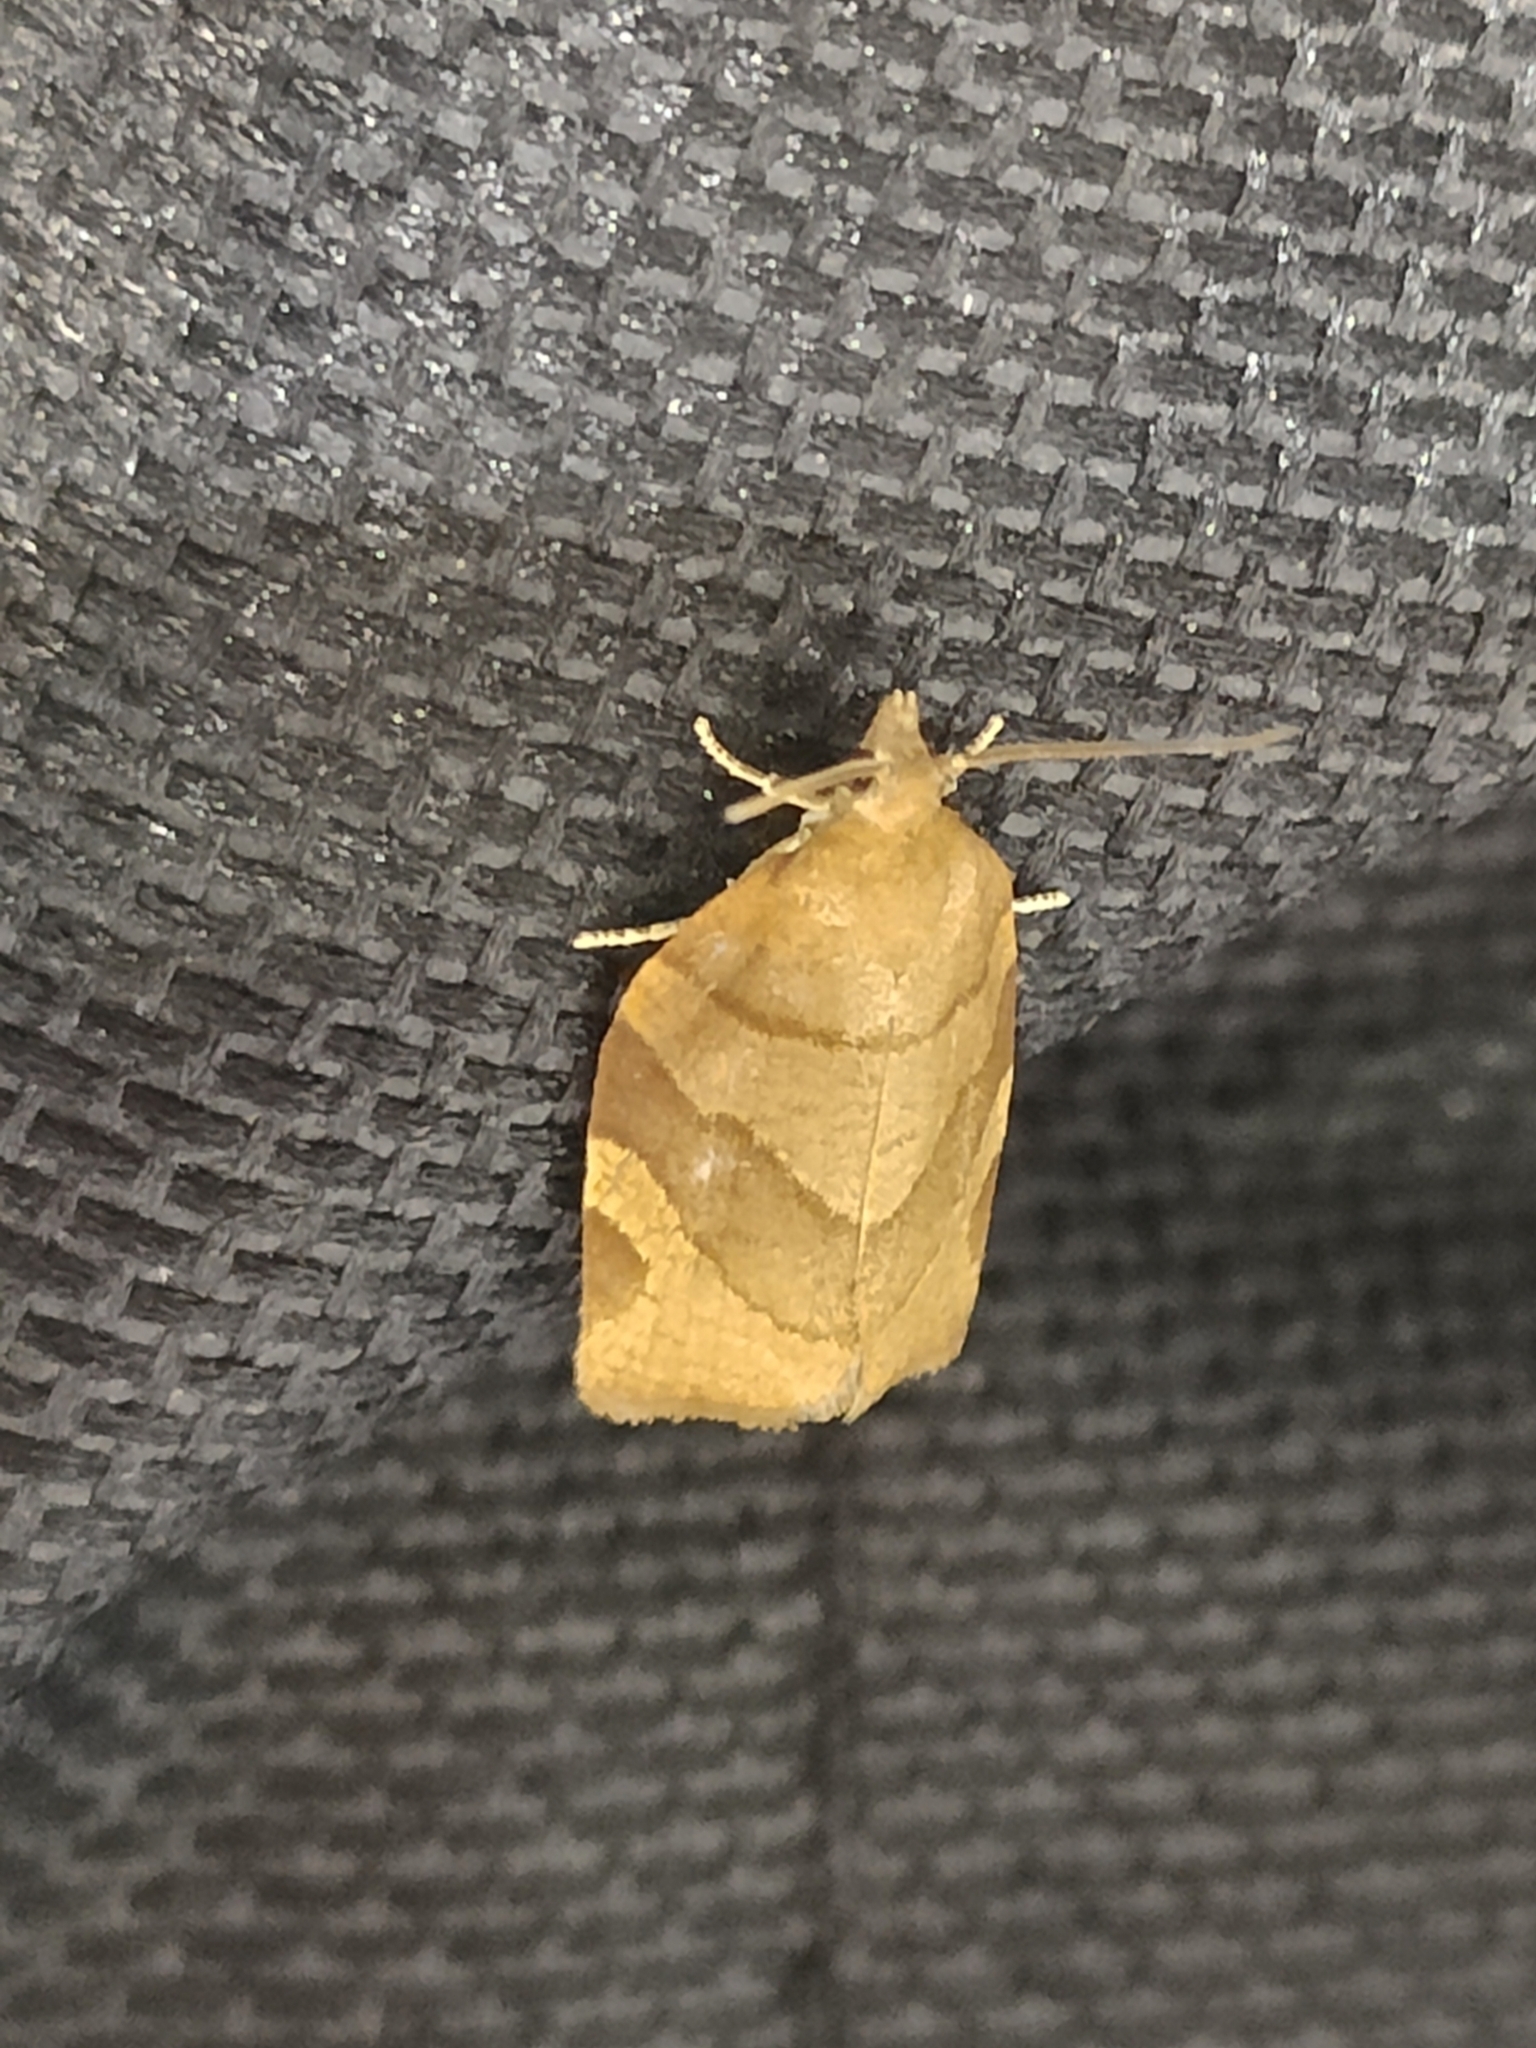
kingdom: Animalia
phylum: Arthropoda
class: Insecta
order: Lepidoptera
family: Tortricidae
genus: Pandemis
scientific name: Pandemis cerasana
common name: Barred fruit-tree tortrix
